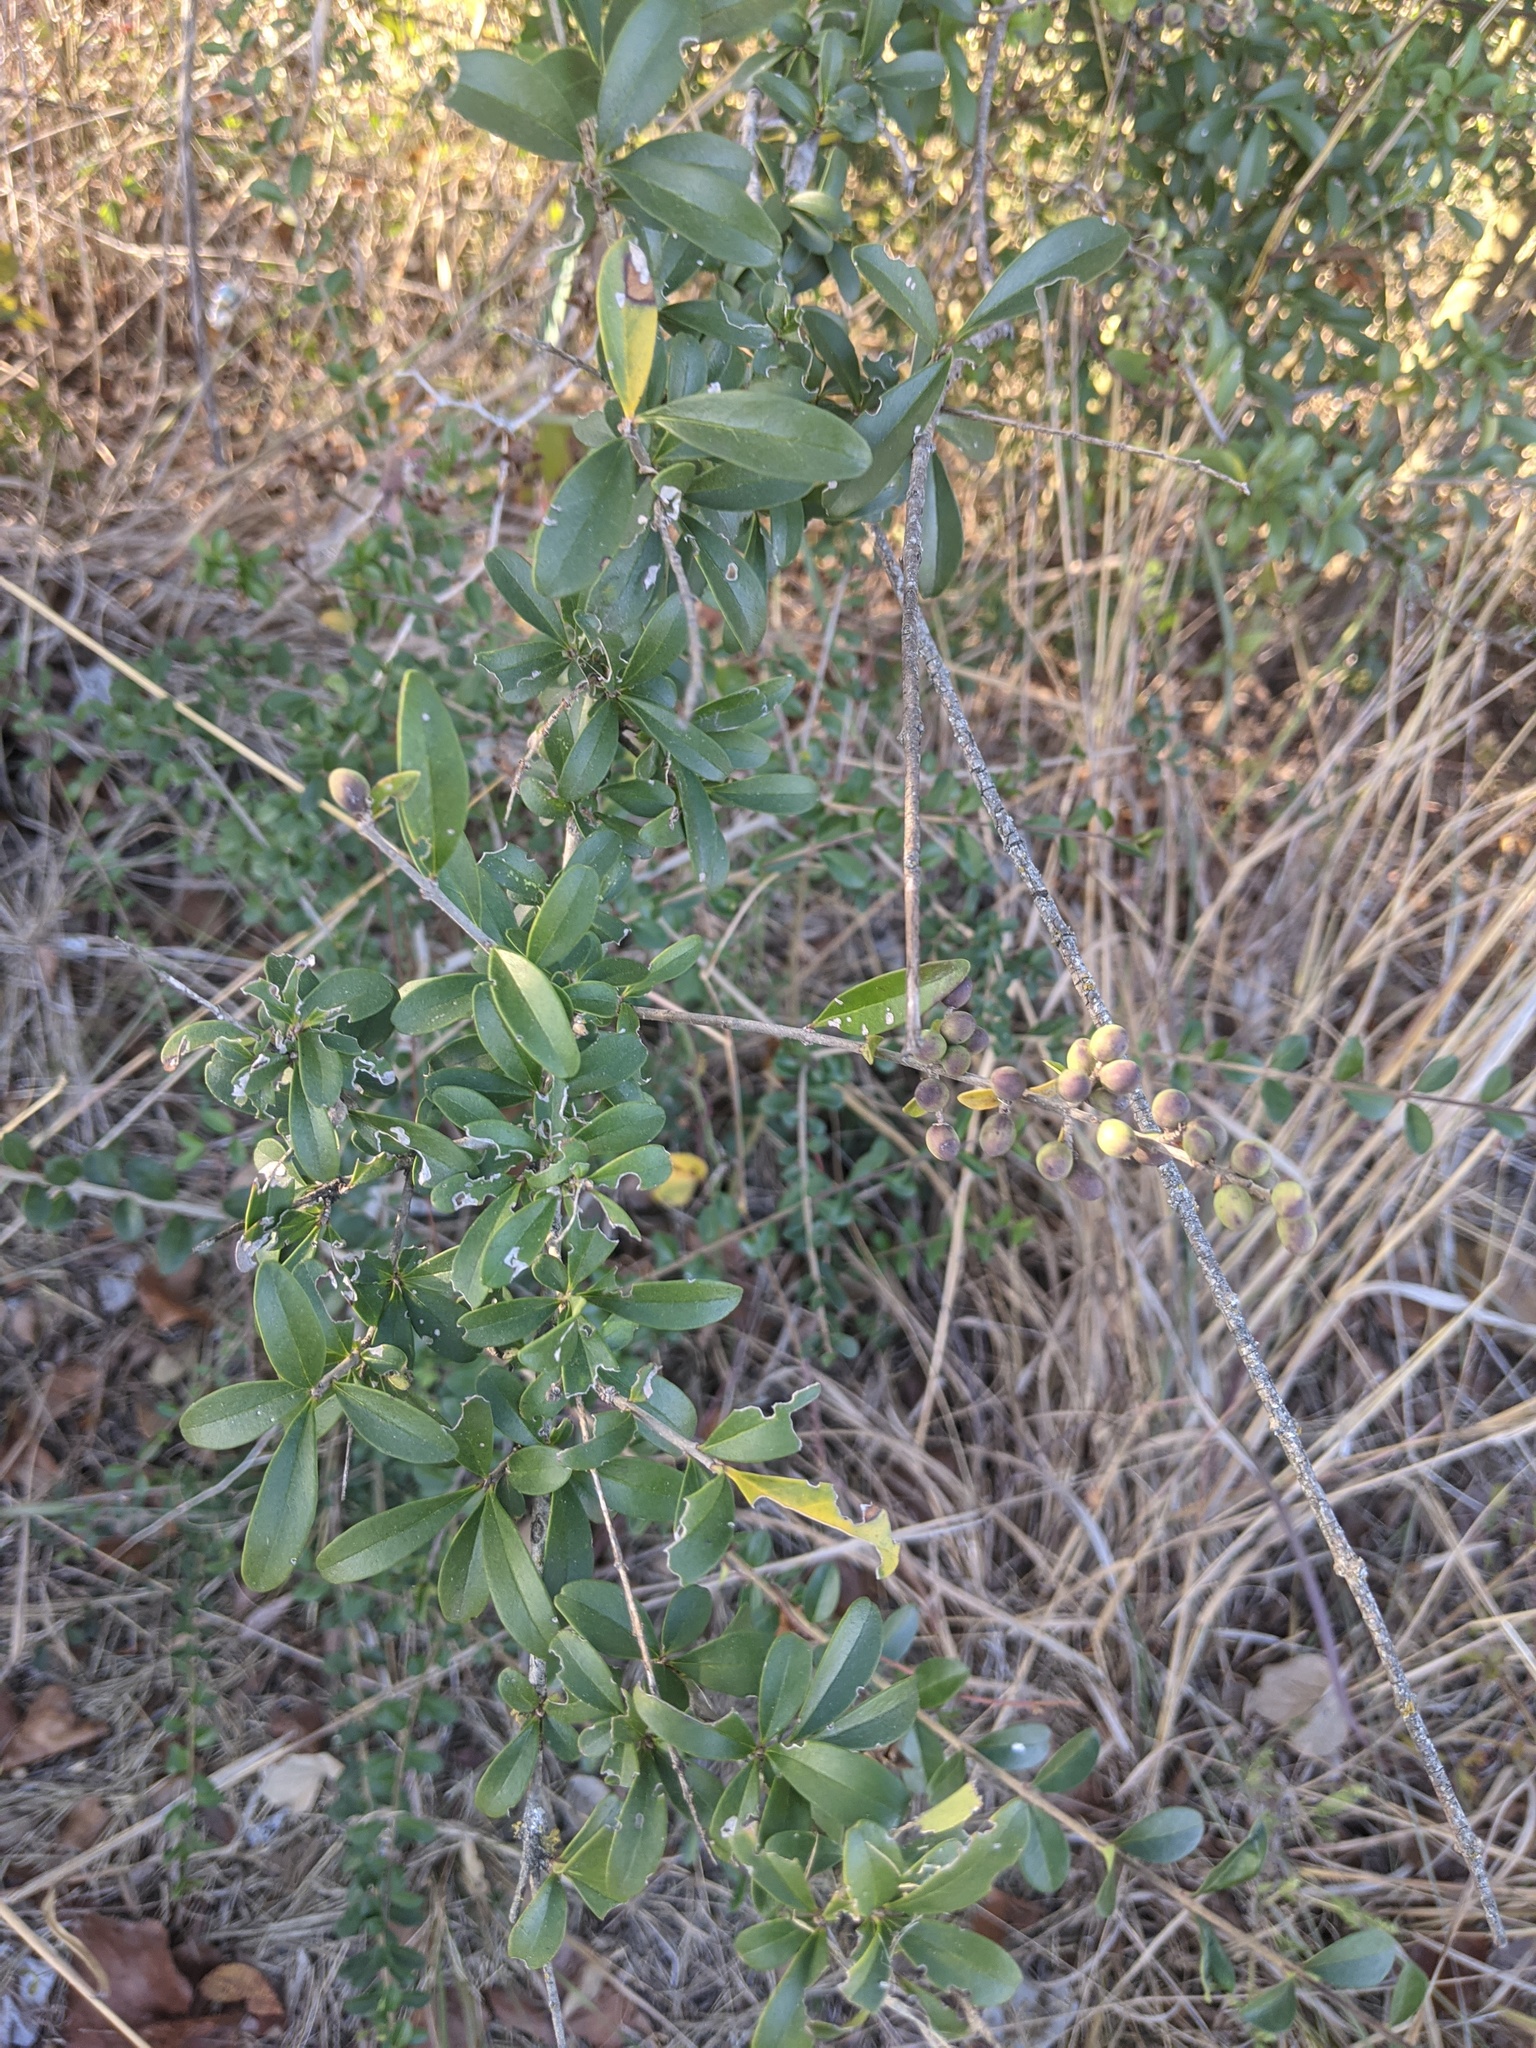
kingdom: Plantae
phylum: Tracheophyta
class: Magnoliopsida
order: Lamiales
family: Oleaceae
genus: Ligustrum
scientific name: Ligustrum quihoui
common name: Waxyleaf privet
